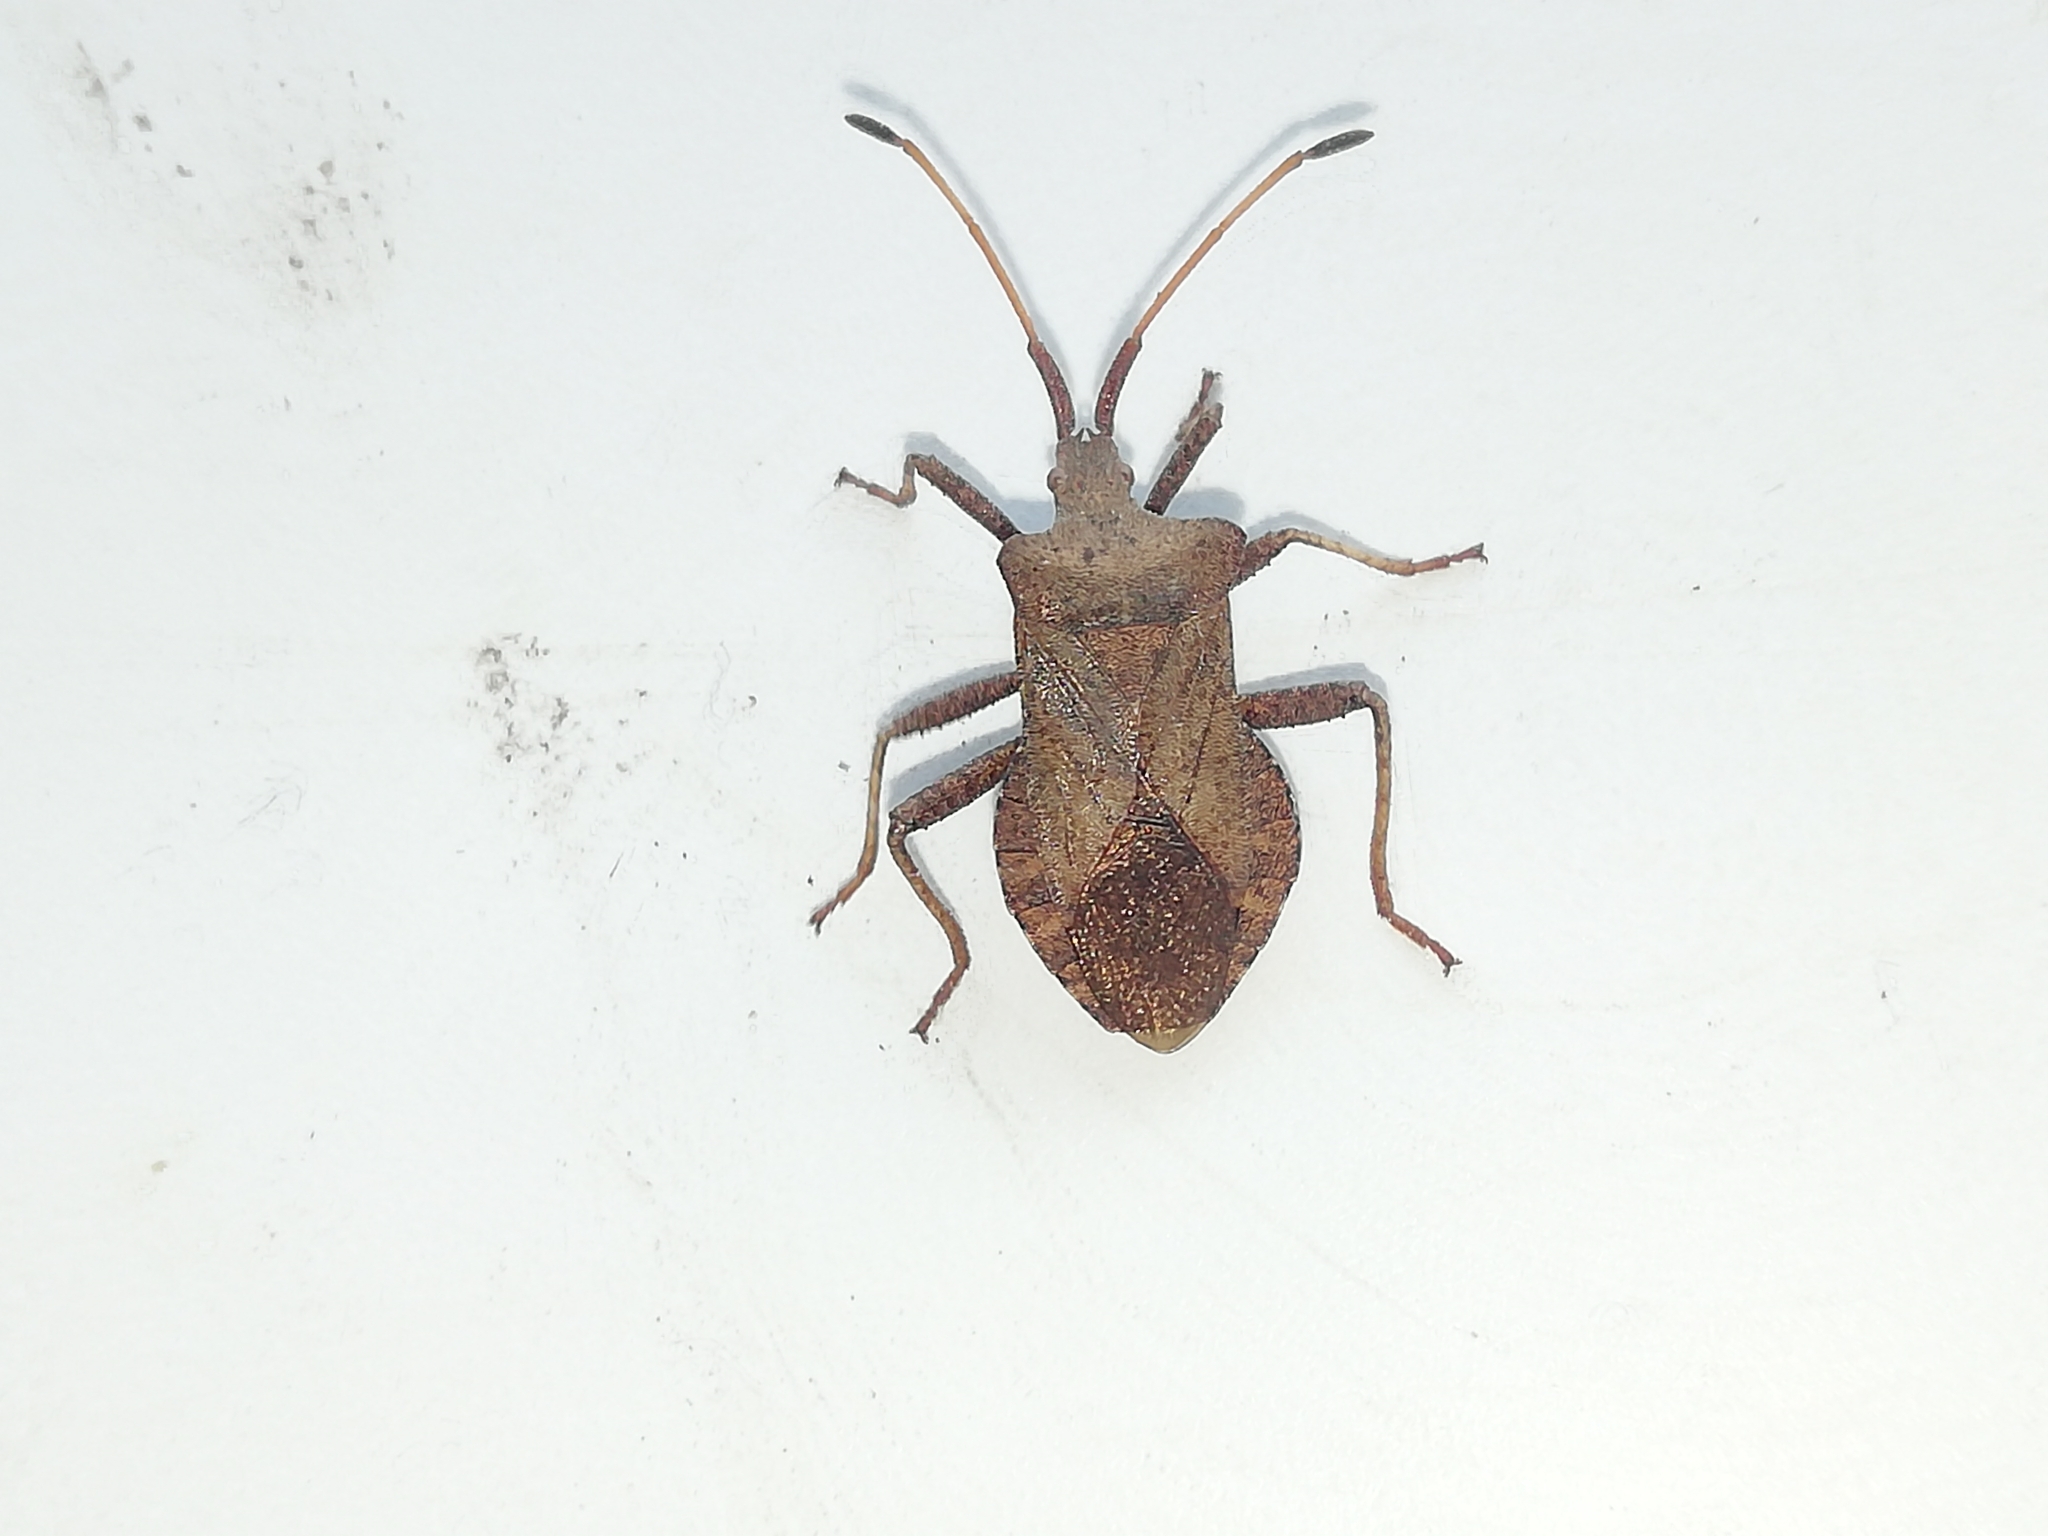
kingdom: Animalia
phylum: Arthropoda
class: Insecta
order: Hemiptera
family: Coreidae
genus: Coreus
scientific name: Coreus marginatus
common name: Dock bug
